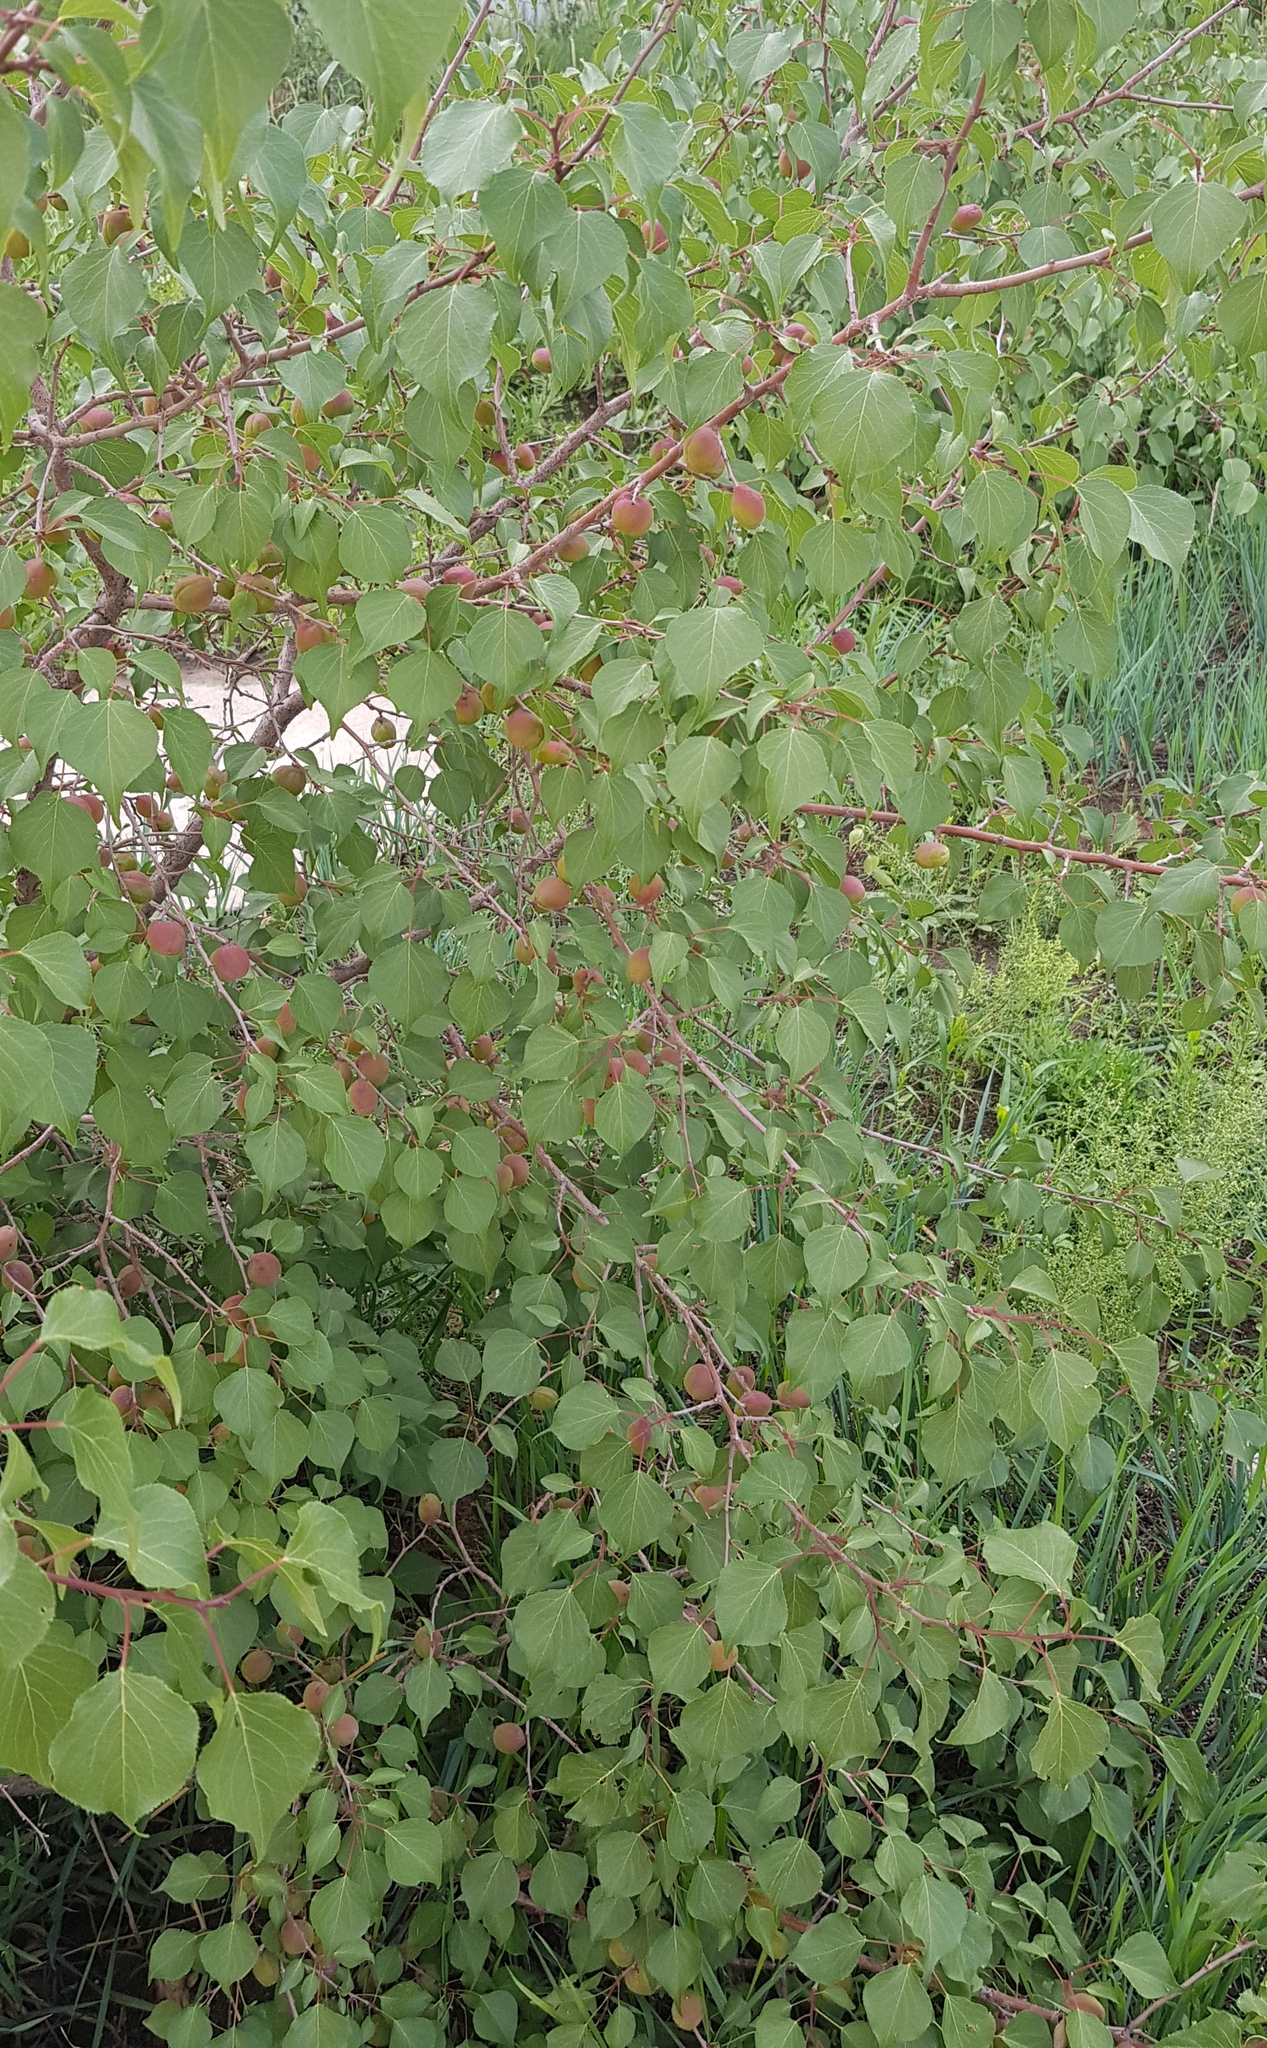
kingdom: Plantae
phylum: Tracheophyta
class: Magnoliopsida
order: Rosales
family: Rosaceae
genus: Prunus
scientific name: Prunus armeniaca
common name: Apricot
